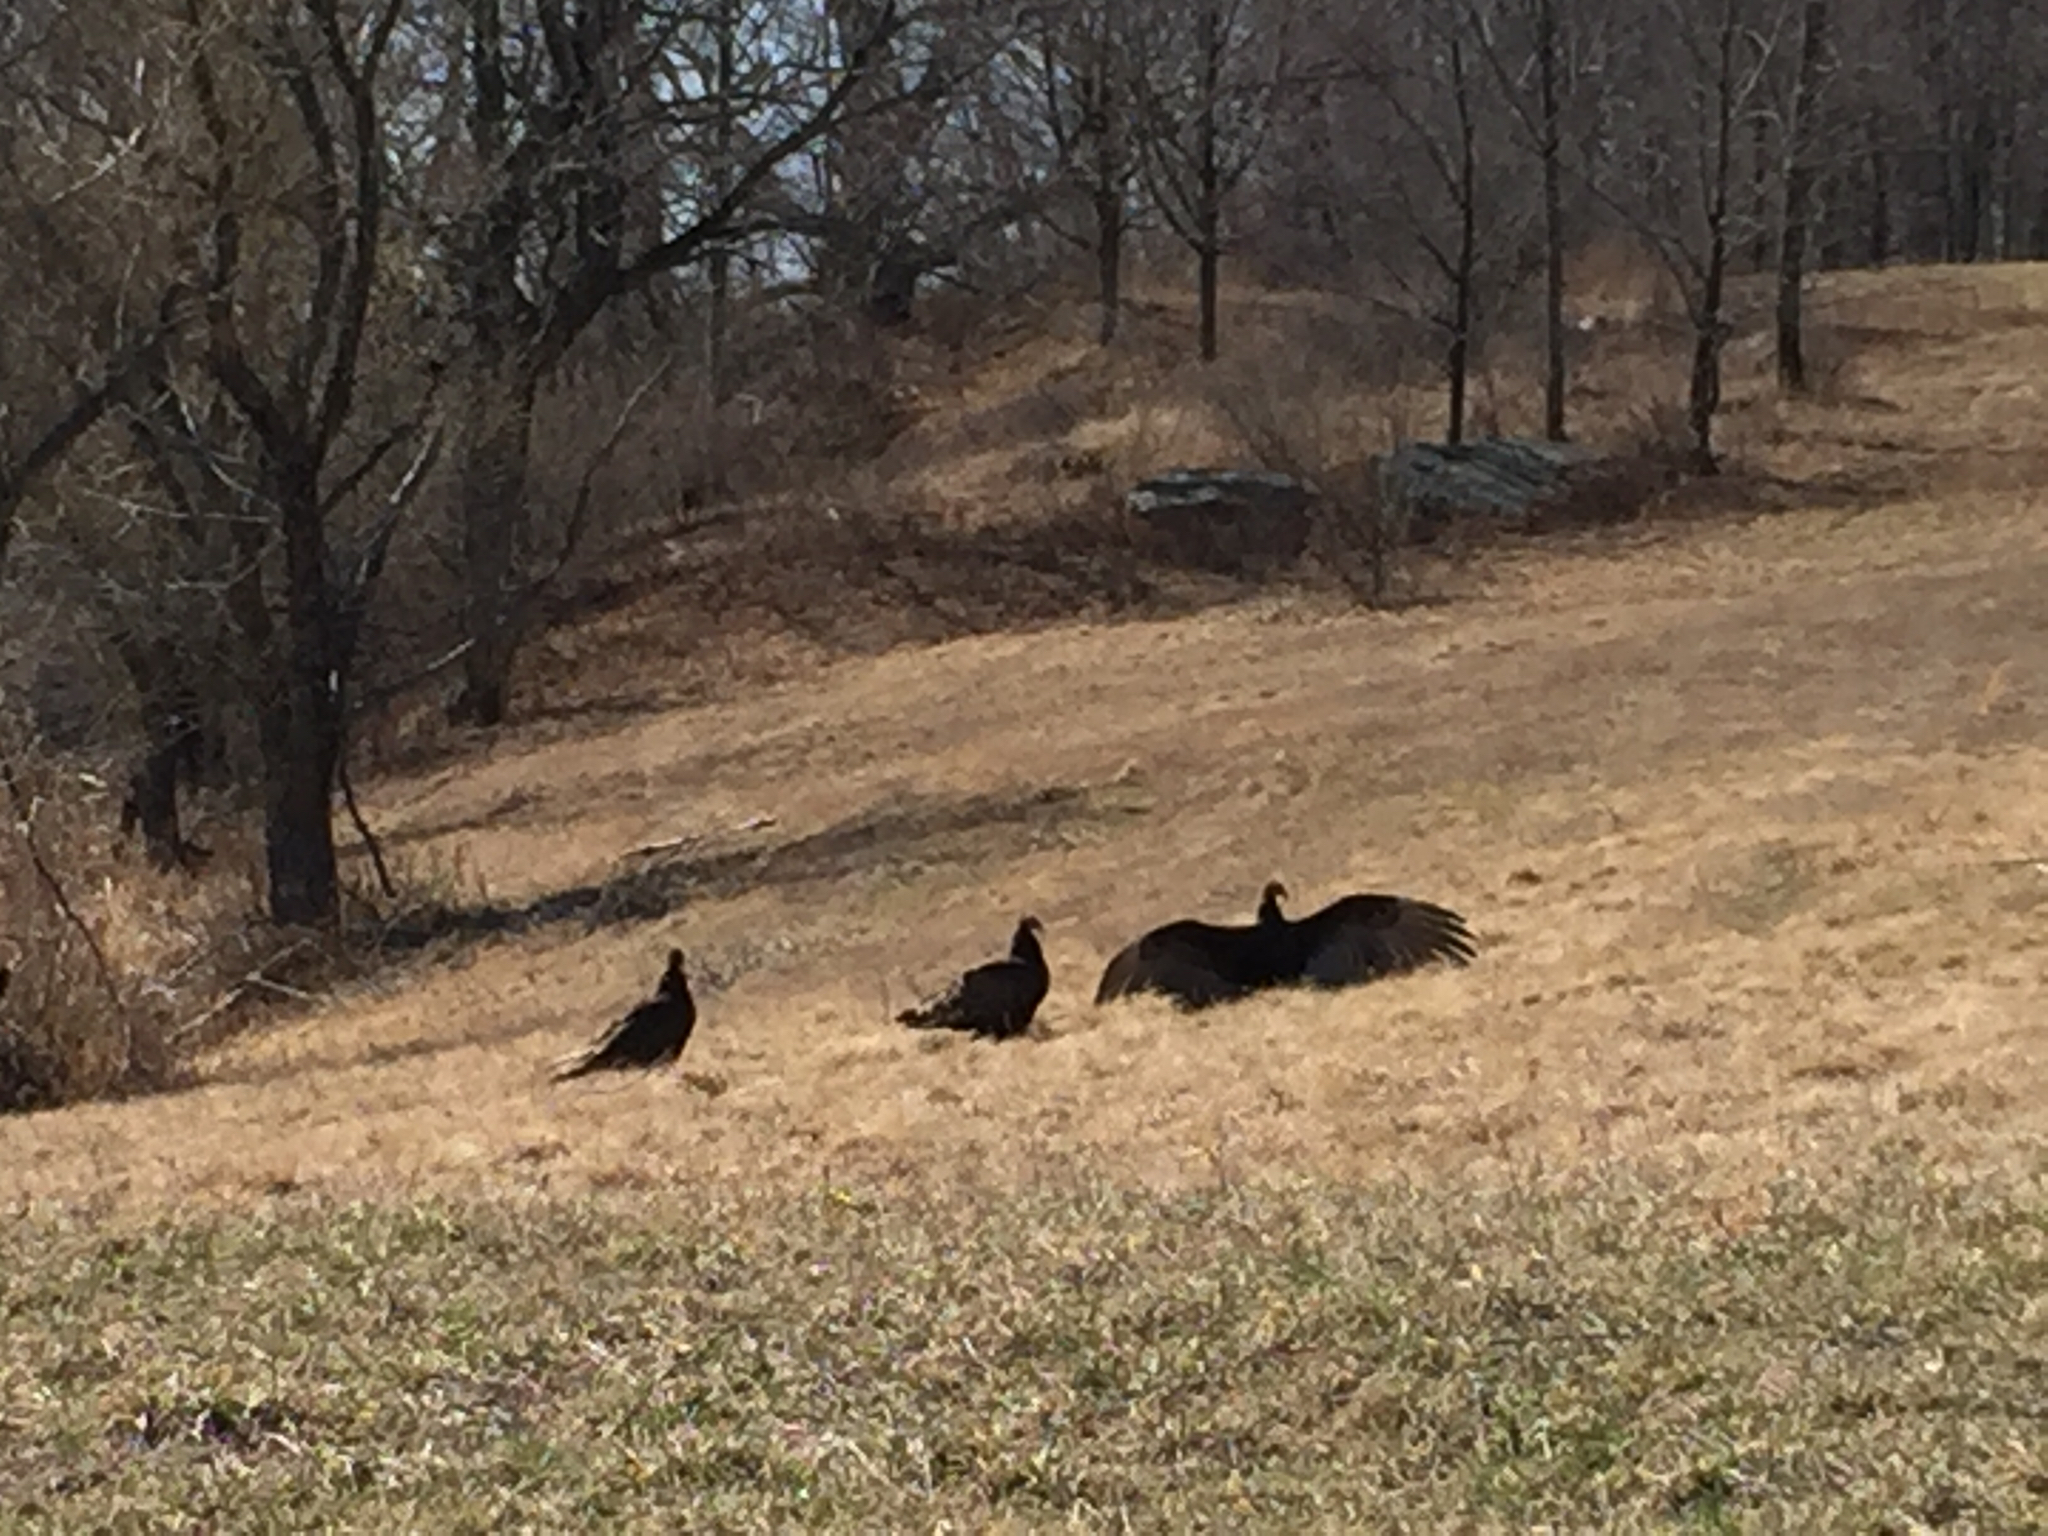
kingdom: Animalia
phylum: Chordata
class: Aves
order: Accipitriformes
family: Cathartidae
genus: Cathartes
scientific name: Cathartes aura
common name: Turkey vulture
